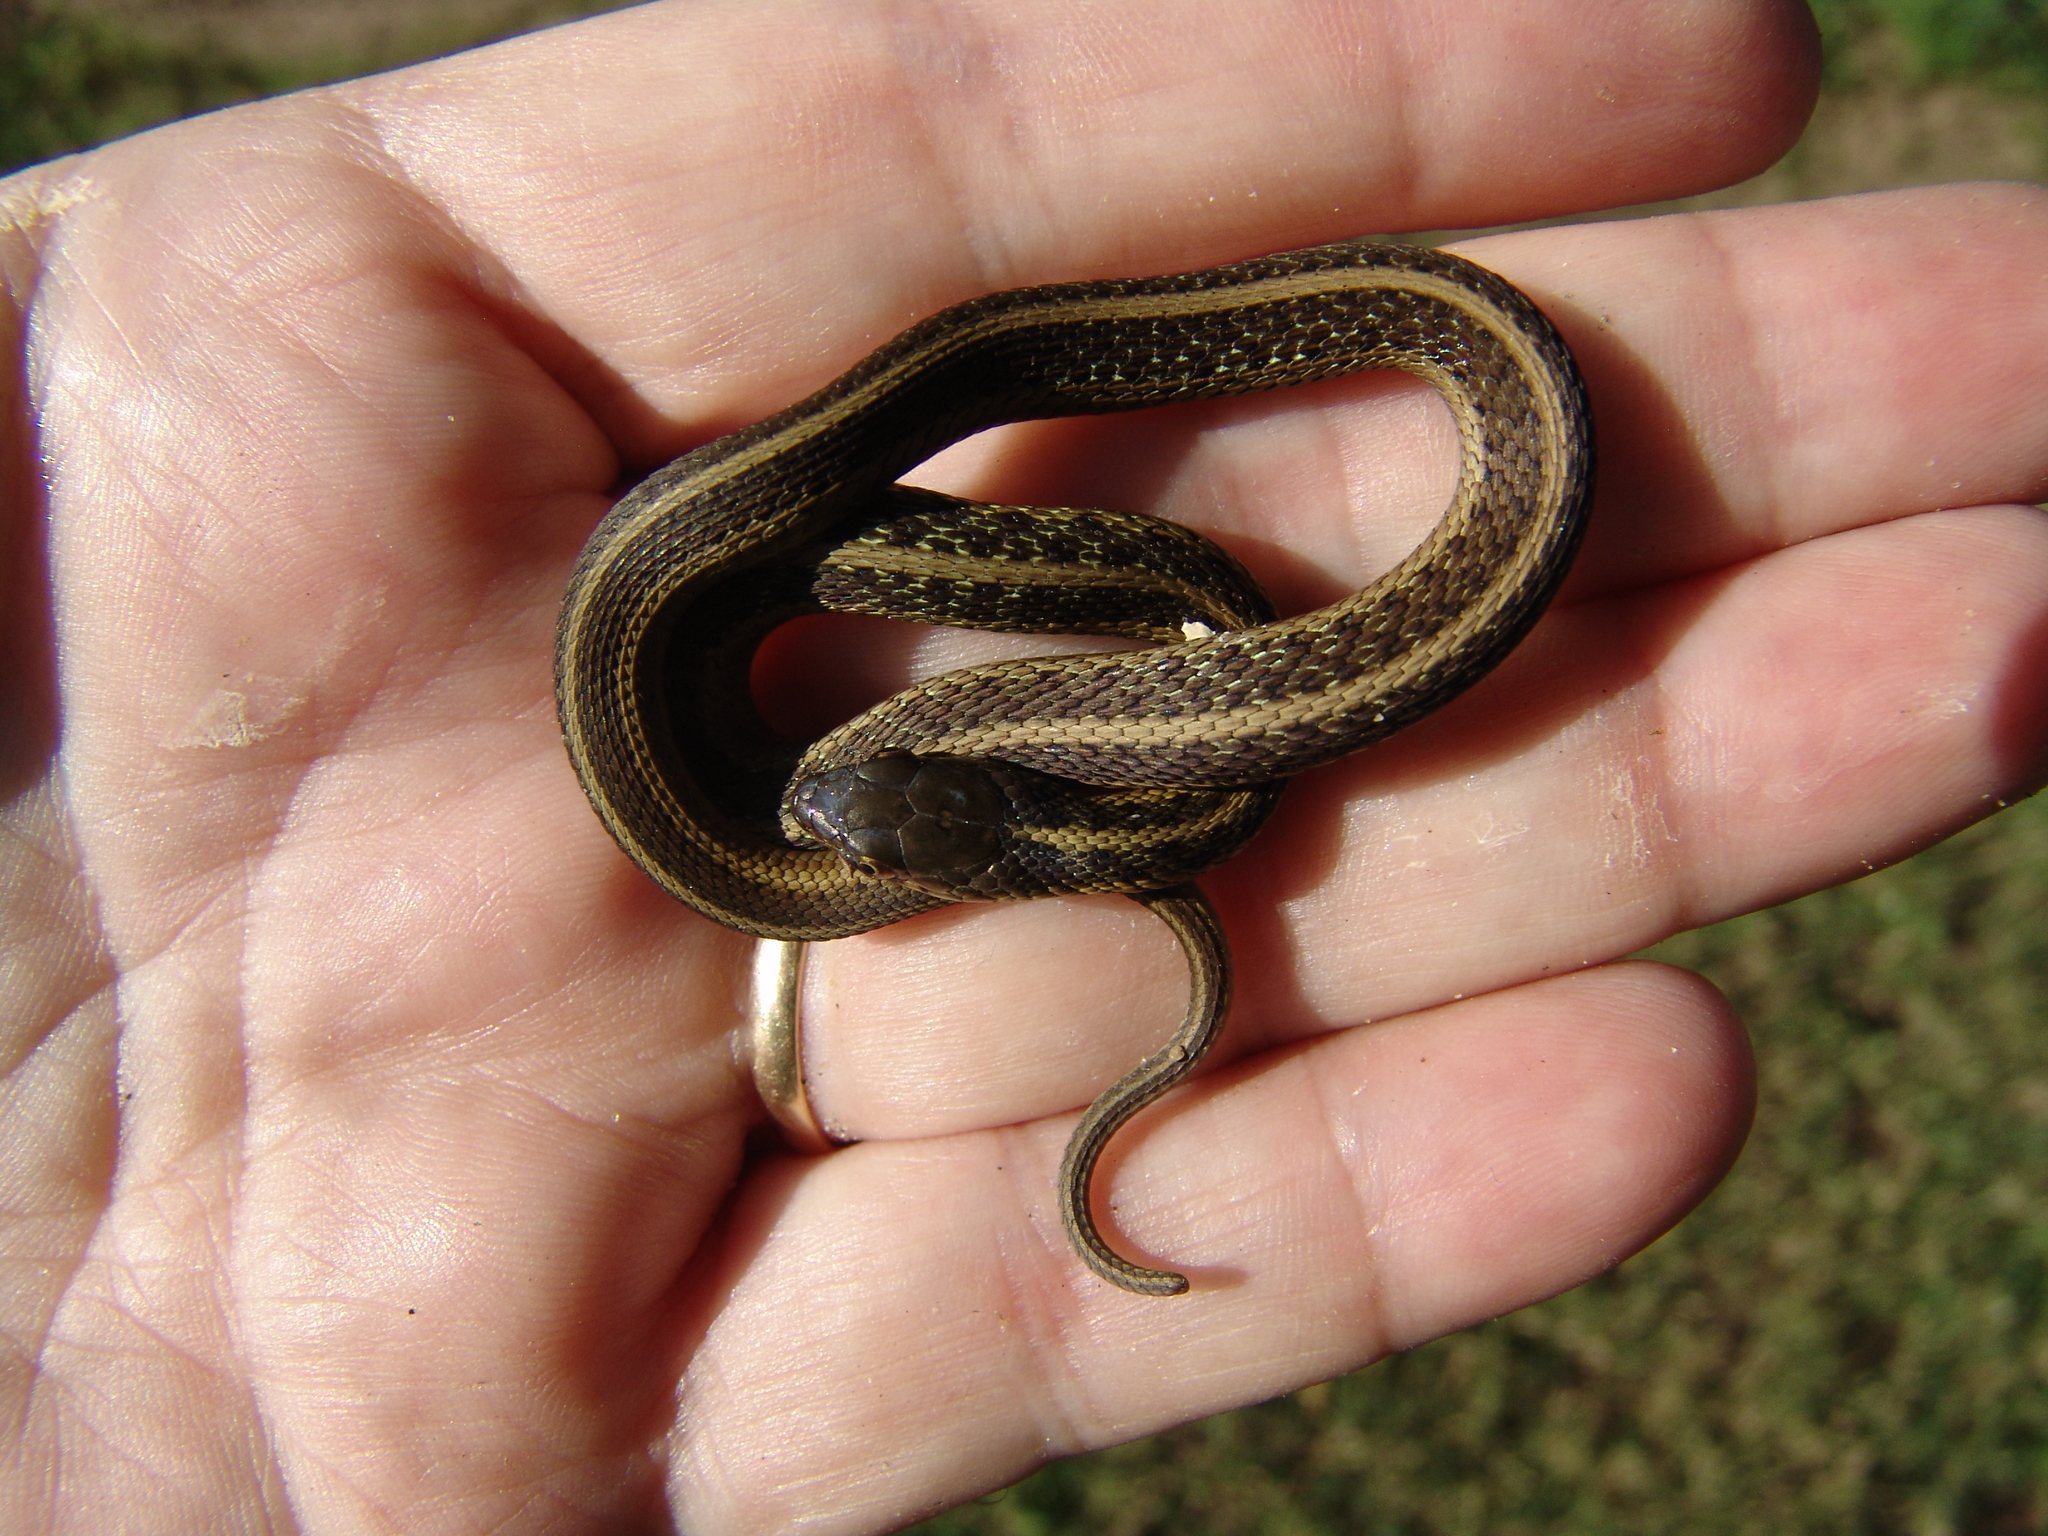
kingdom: Animalia
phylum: Chordata
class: Squamata
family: Colubridae
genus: Thamnophis
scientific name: Thamnophis sirtalis
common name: Common garter snake
